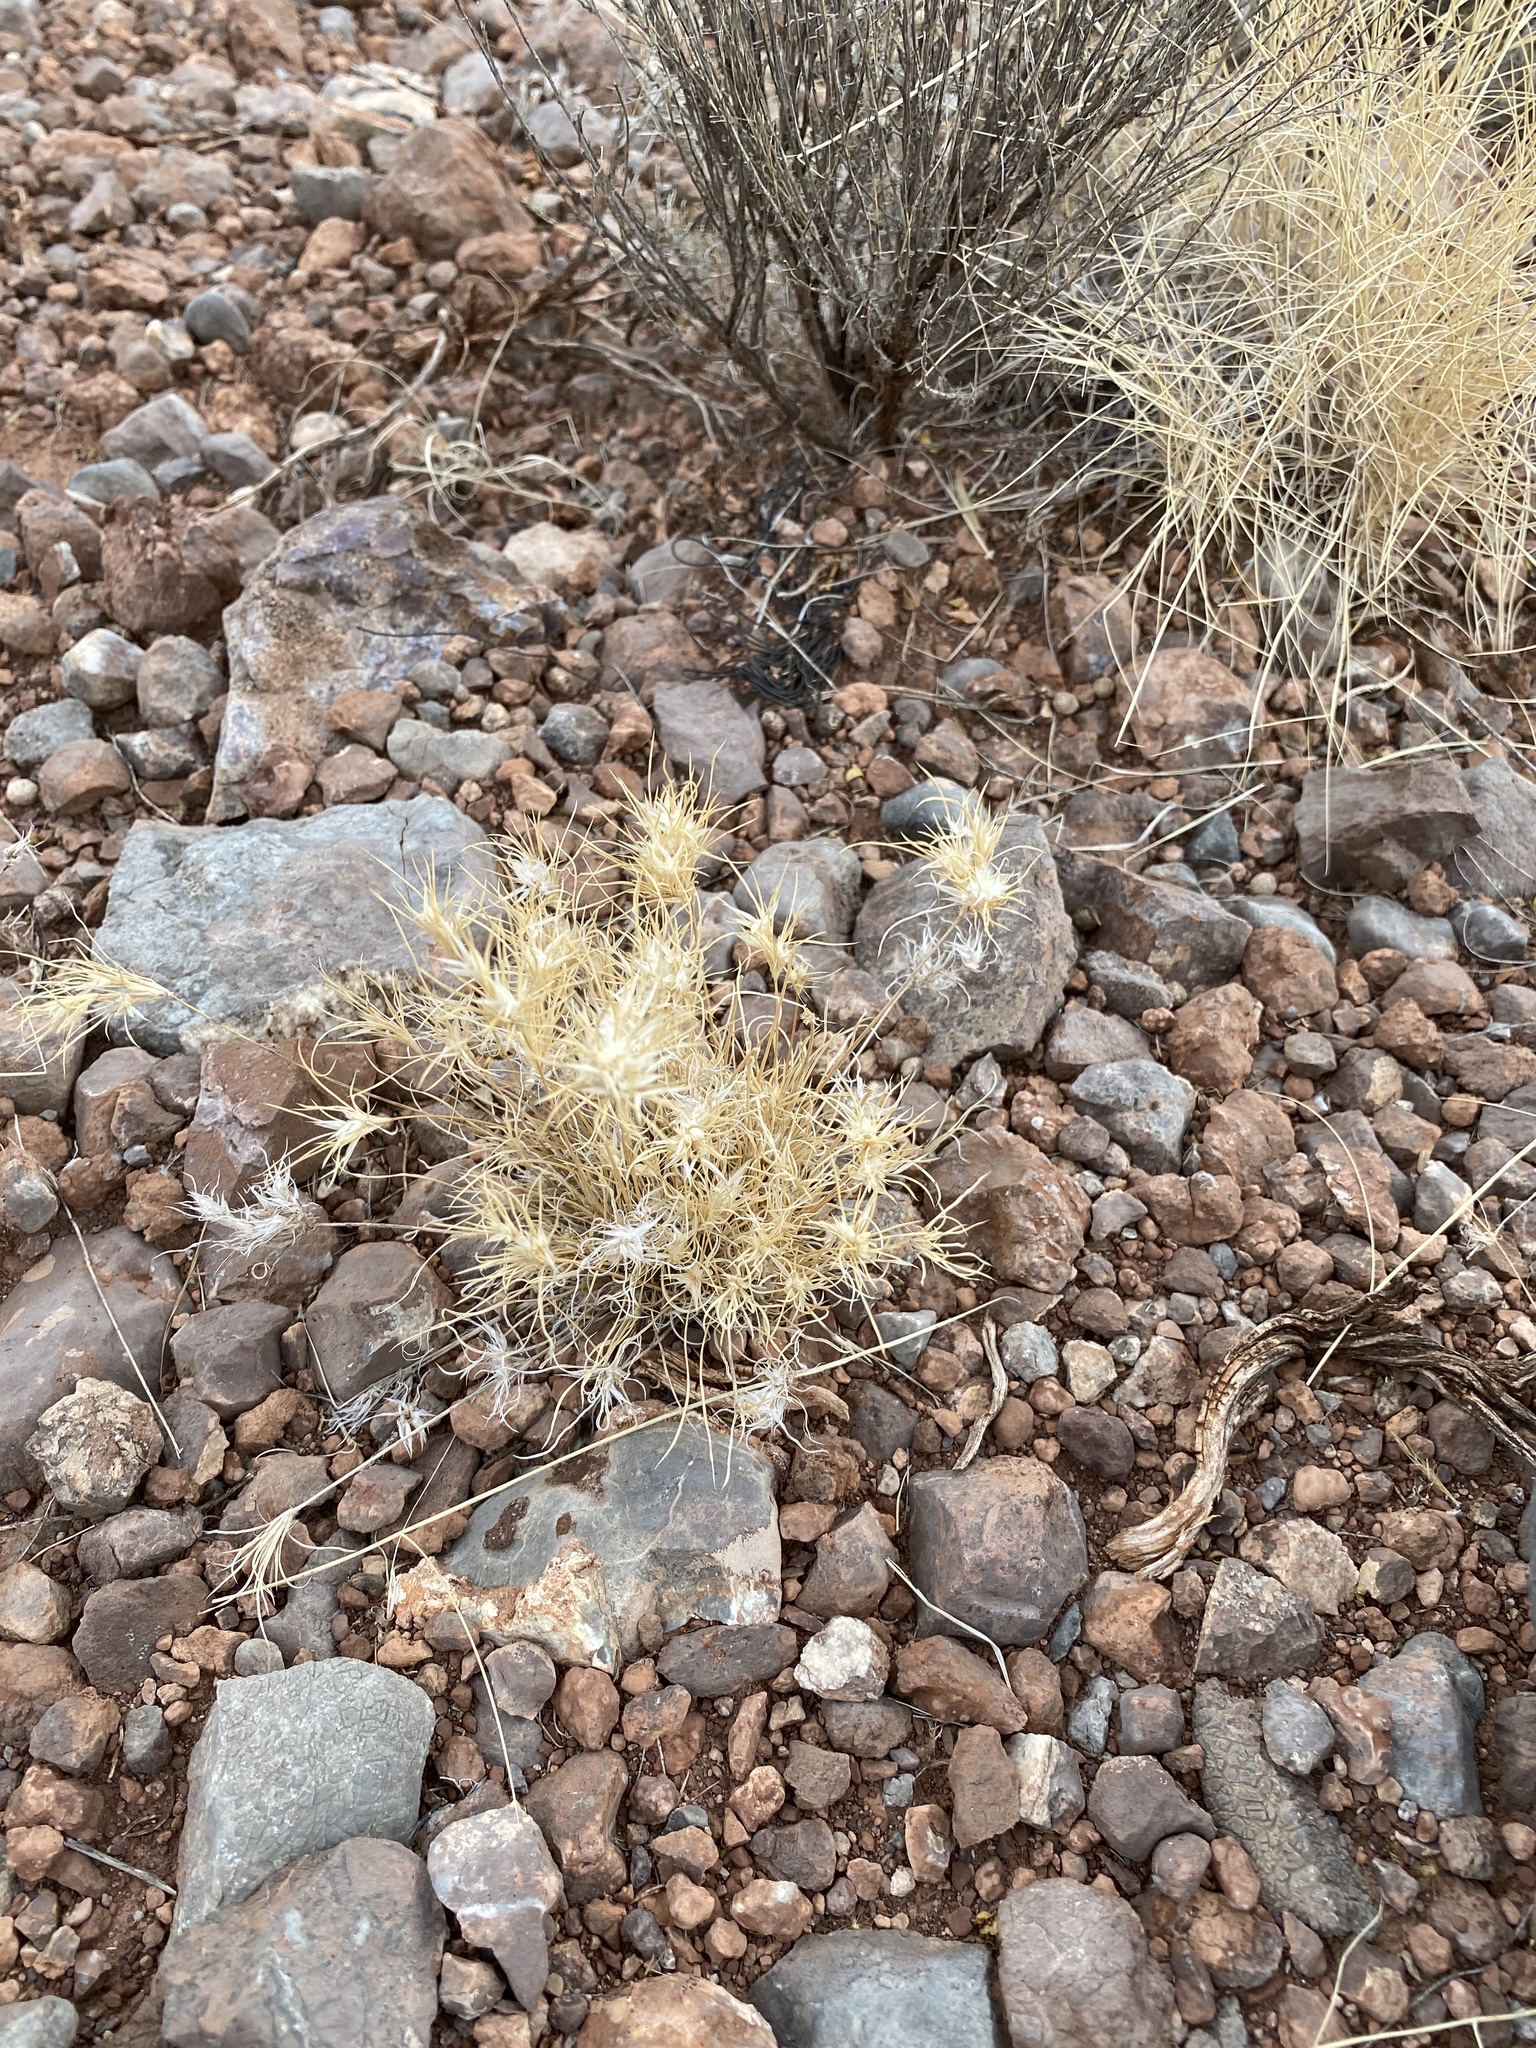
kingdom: Plantae
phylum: Tracheophyta
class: Liliopsida
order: Poales
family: Poaceae
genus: Dasyochloa
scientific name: Dasyochloa pulchella
